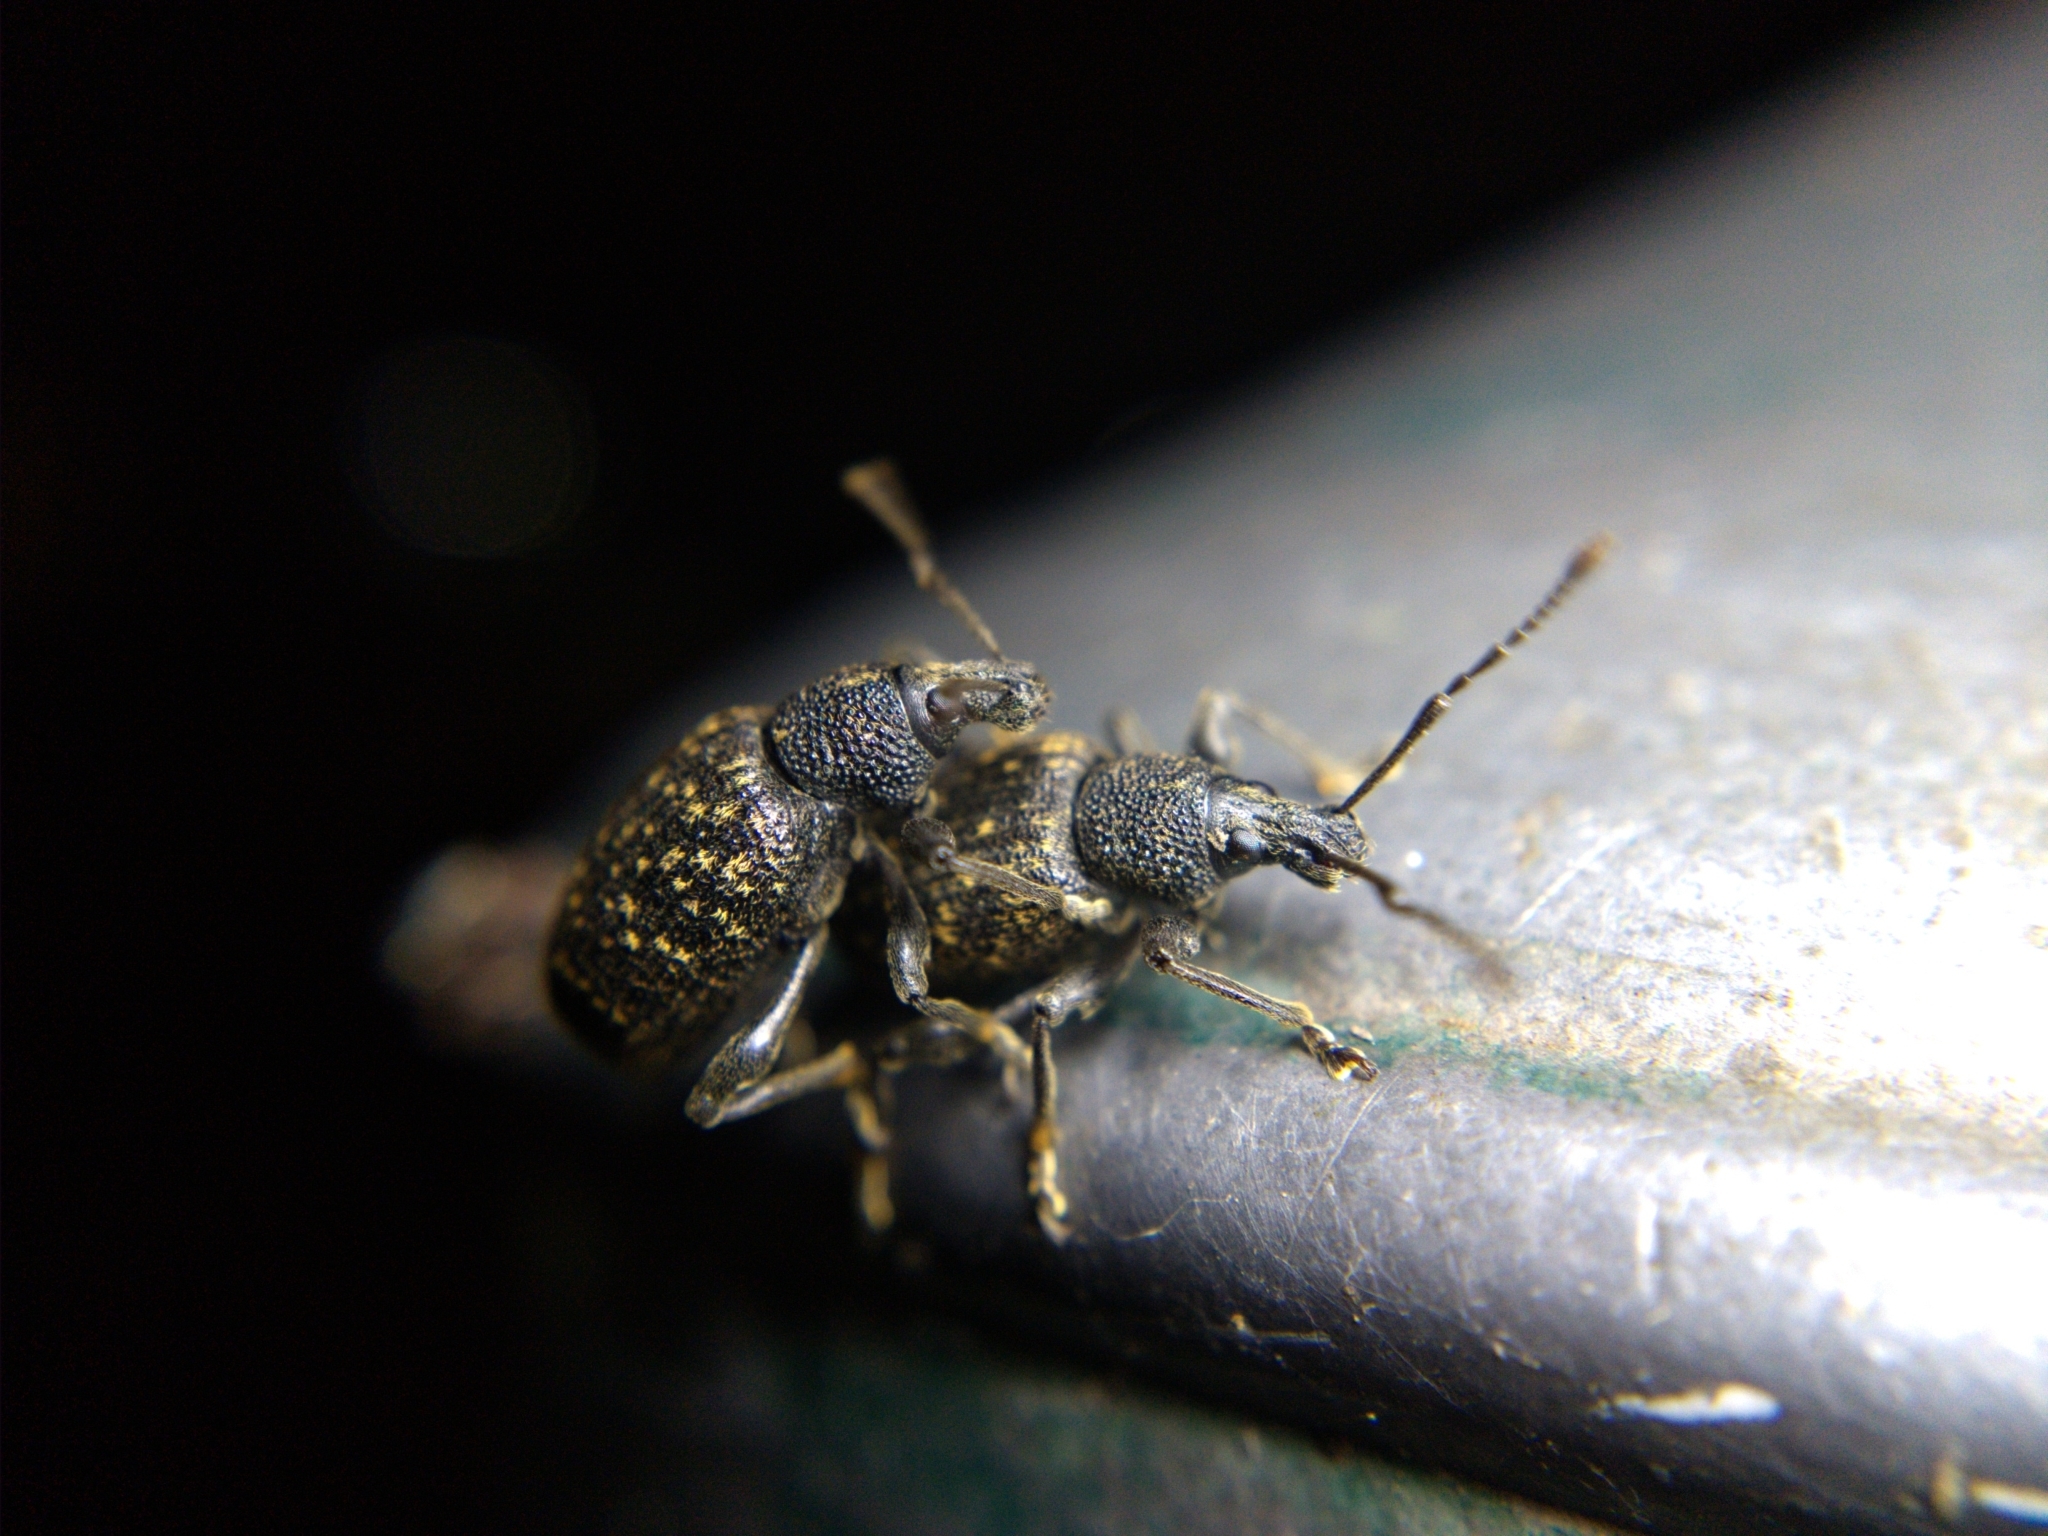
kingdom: Animalia
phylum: Arthropoda
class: Insecta
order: Coleoptera
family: Curculionidae
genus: Otiorhynchus
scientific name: Otiorhynchus sulcatus
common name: Black vine weevil
